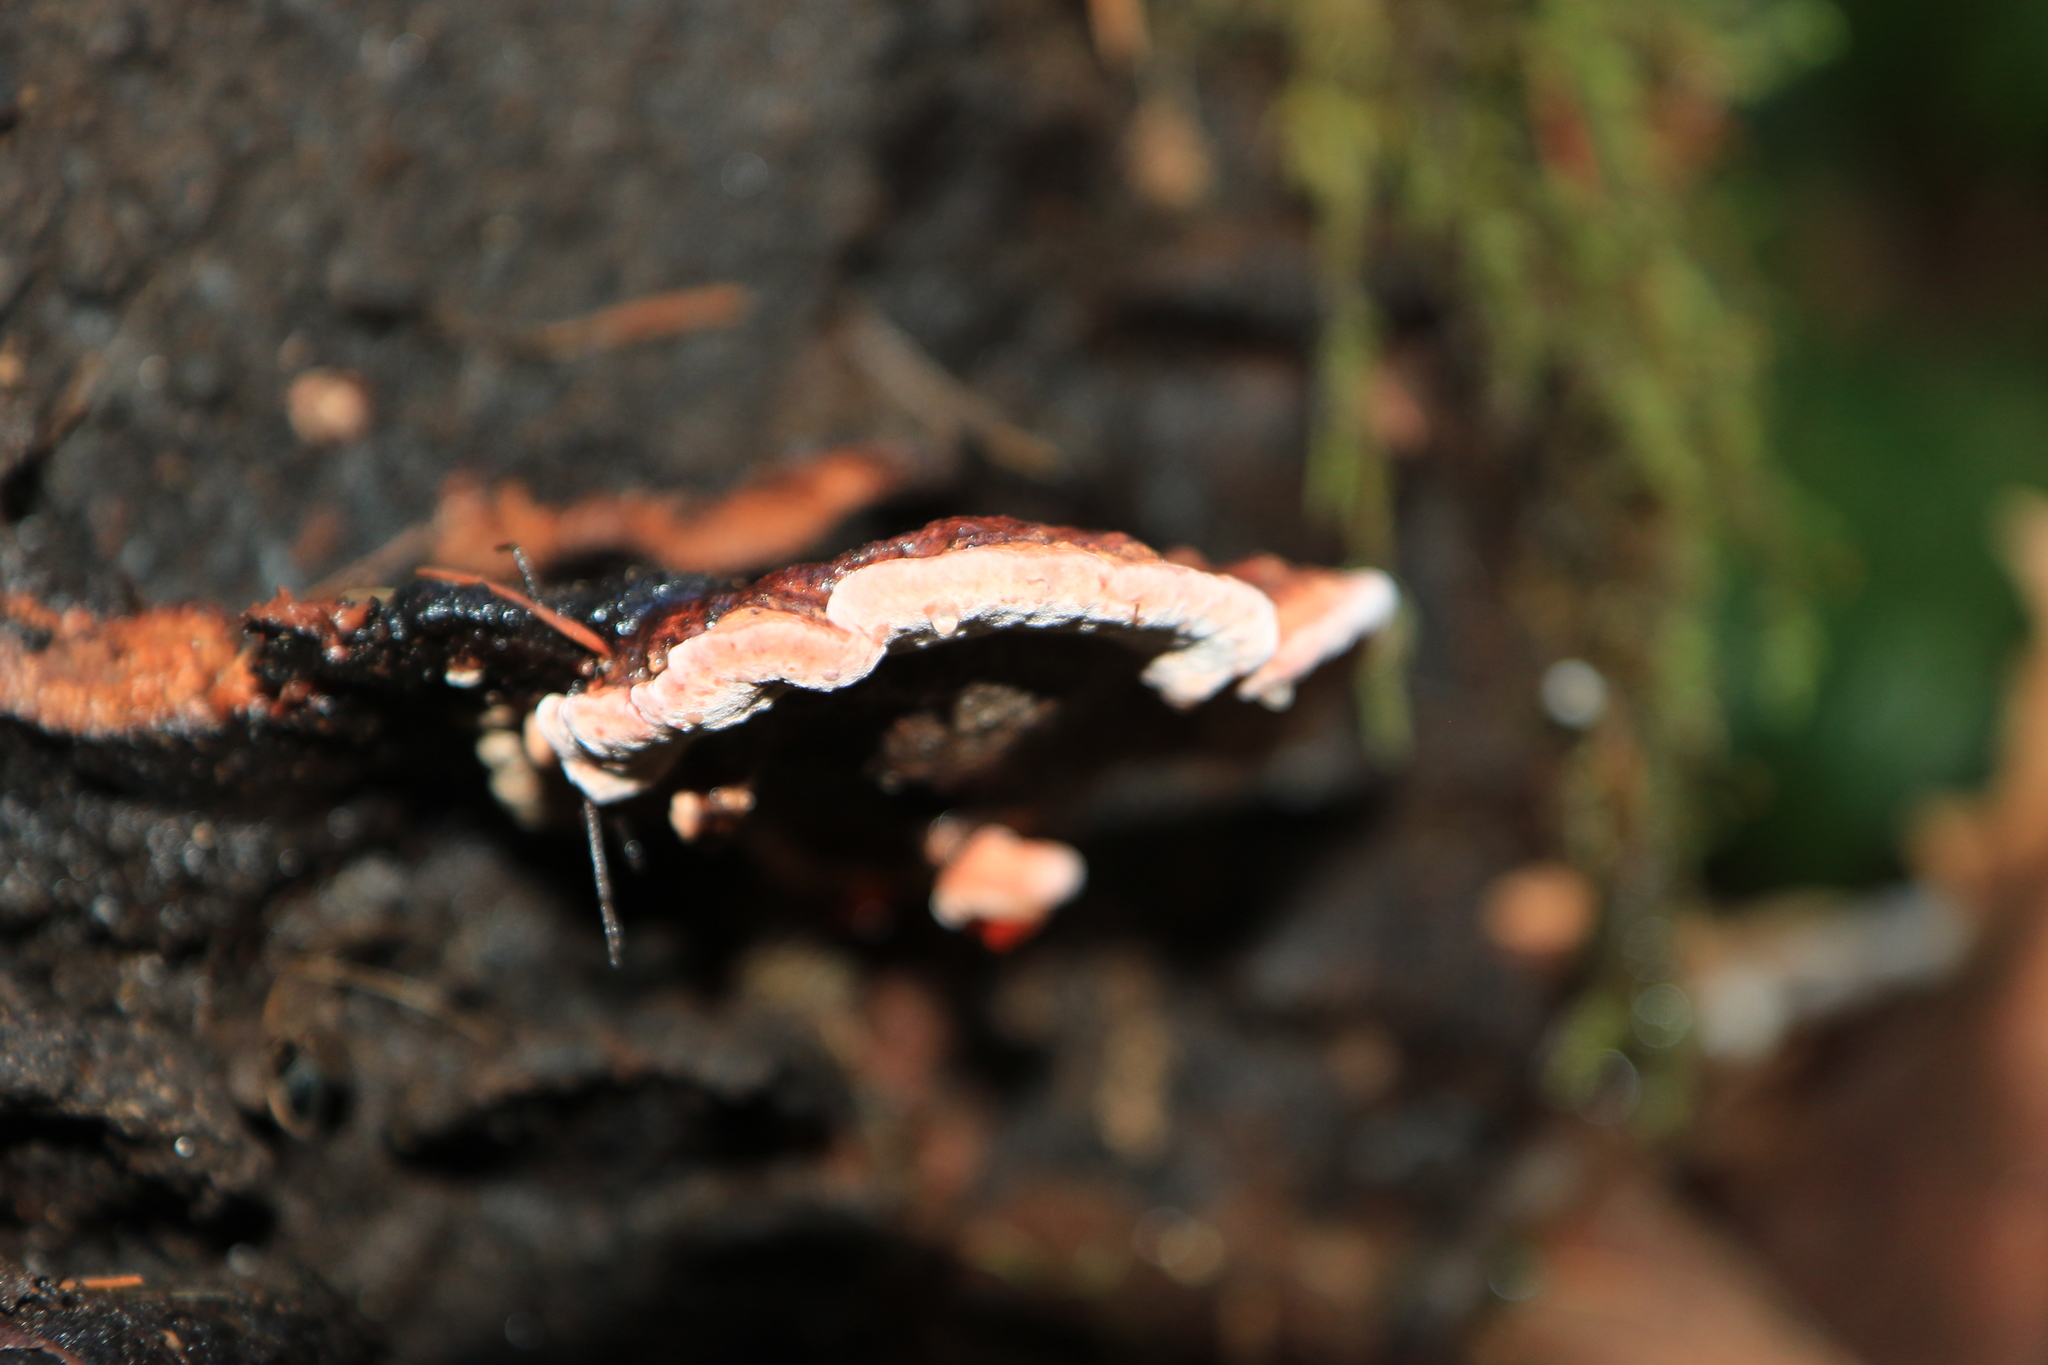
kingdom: Fungi
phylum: Basidiomycota
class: Agaricomycetes
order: Polyporales
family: Fomitopsidaceae
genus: Rhodofomes
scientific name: Rhodofomes cajanderi
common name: Rosy conk
